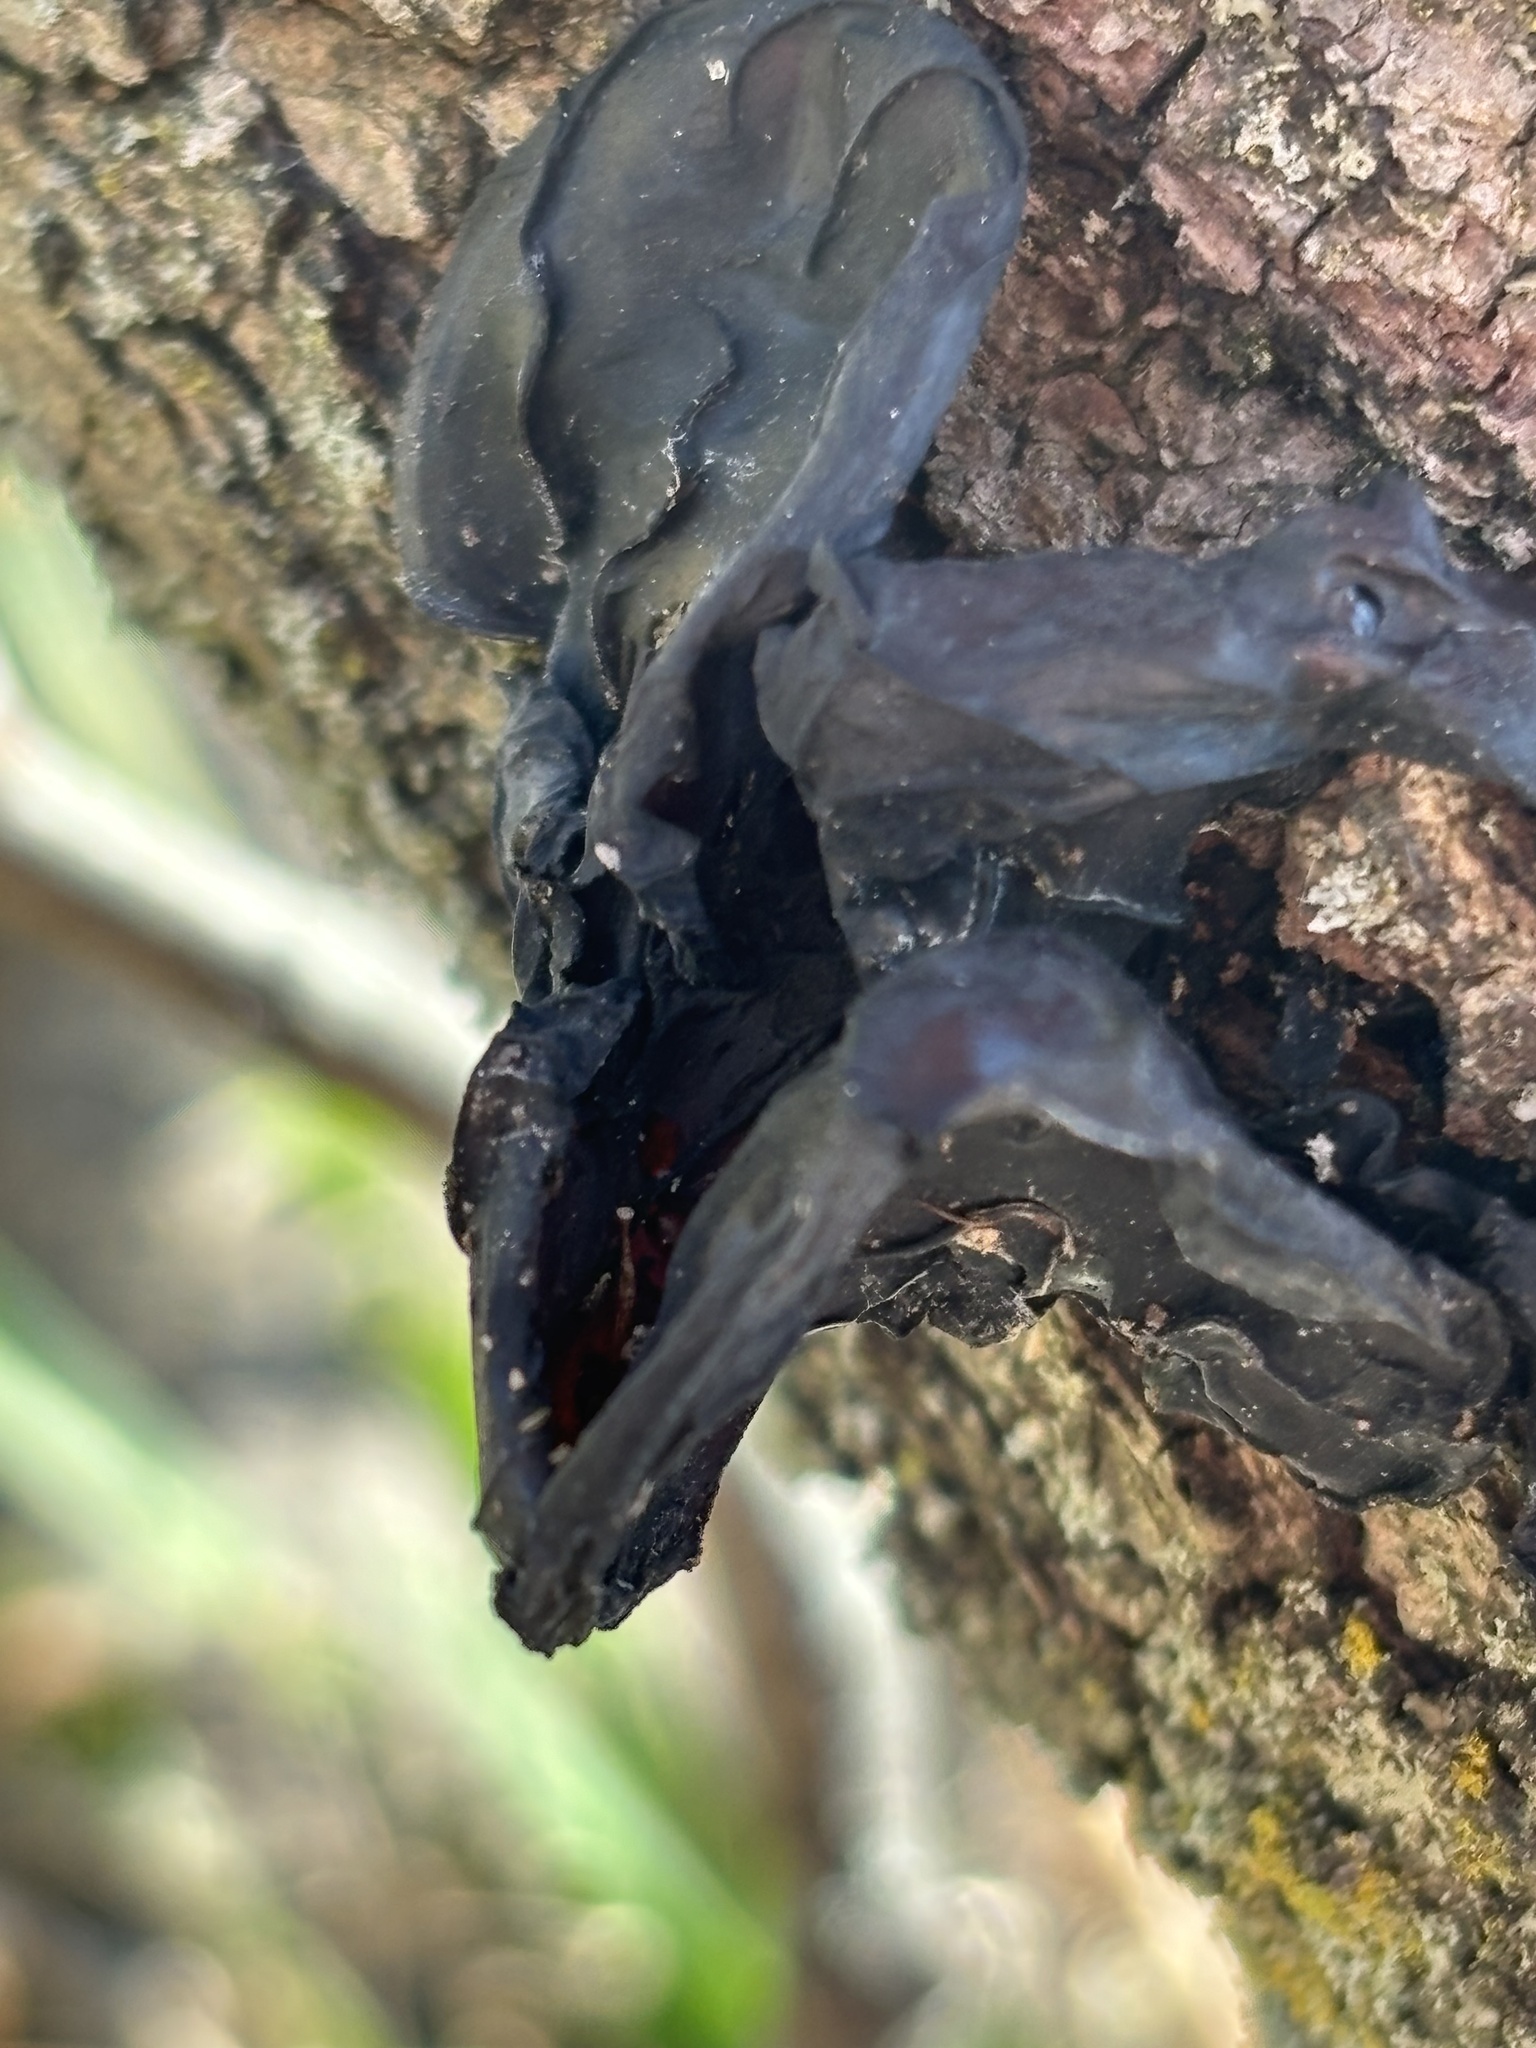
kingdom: Fungi
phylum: Basidiomycota
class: Agaricomycetes
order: Auriculariales
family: Auriculariaceae
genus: Exidia
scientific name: Exidia
